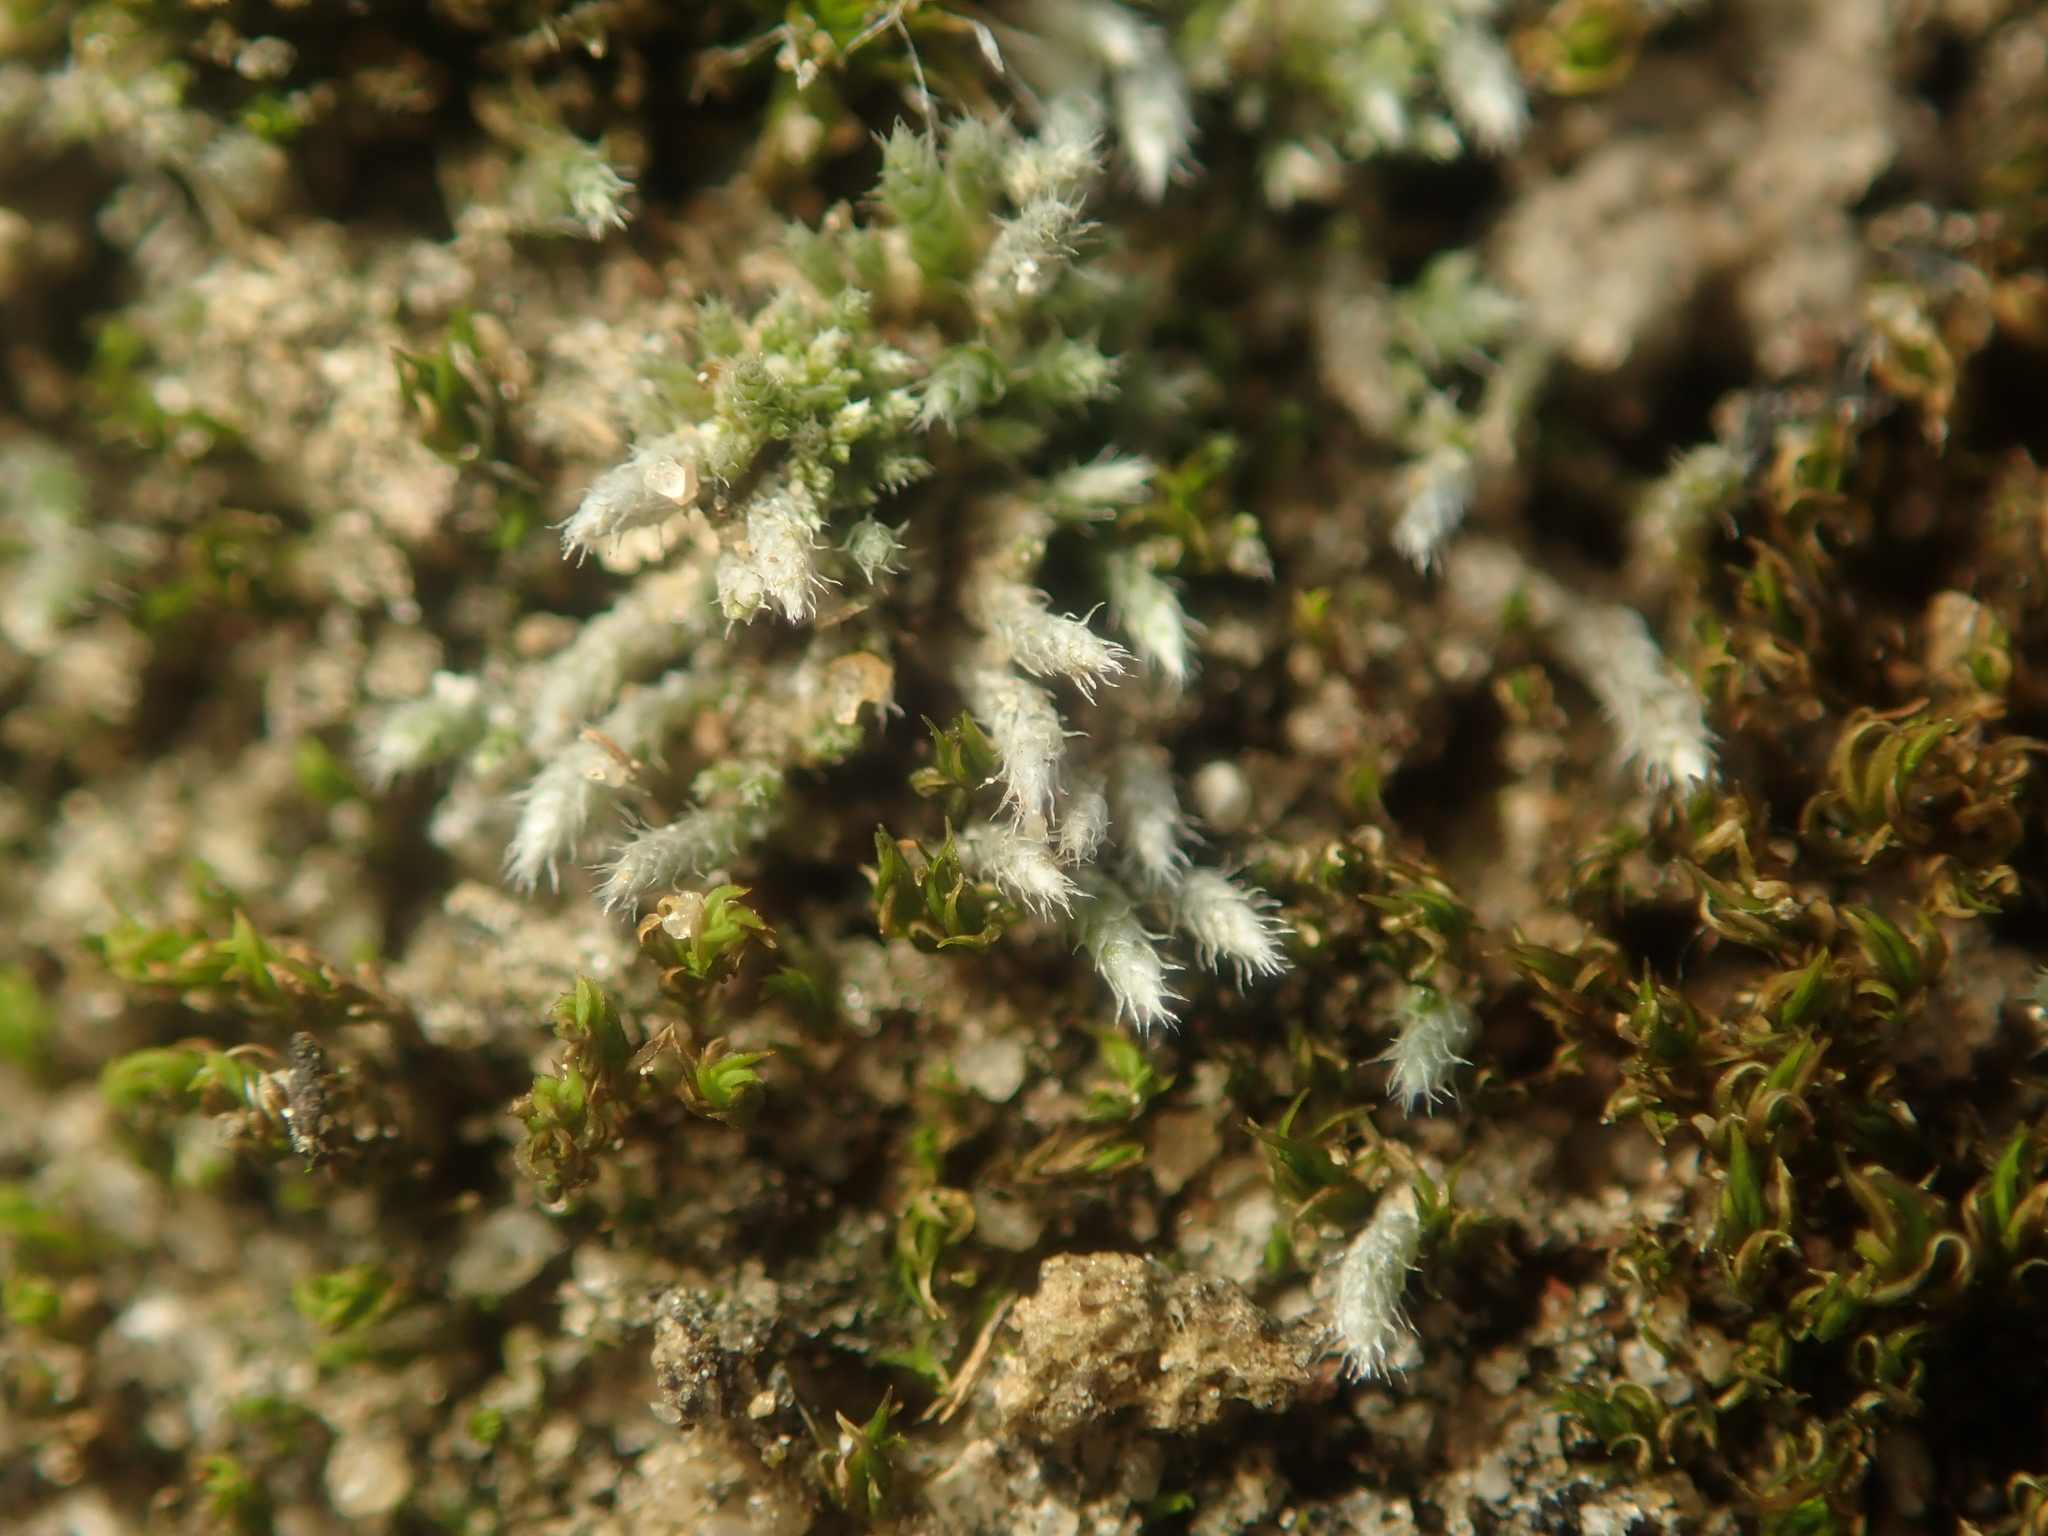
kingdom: Plantae
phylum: Bryophyta
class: Bryopsida
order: Bryales
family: Bryaceae
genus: Bryum
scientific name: Bryum argenteum
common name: Silver-moss
